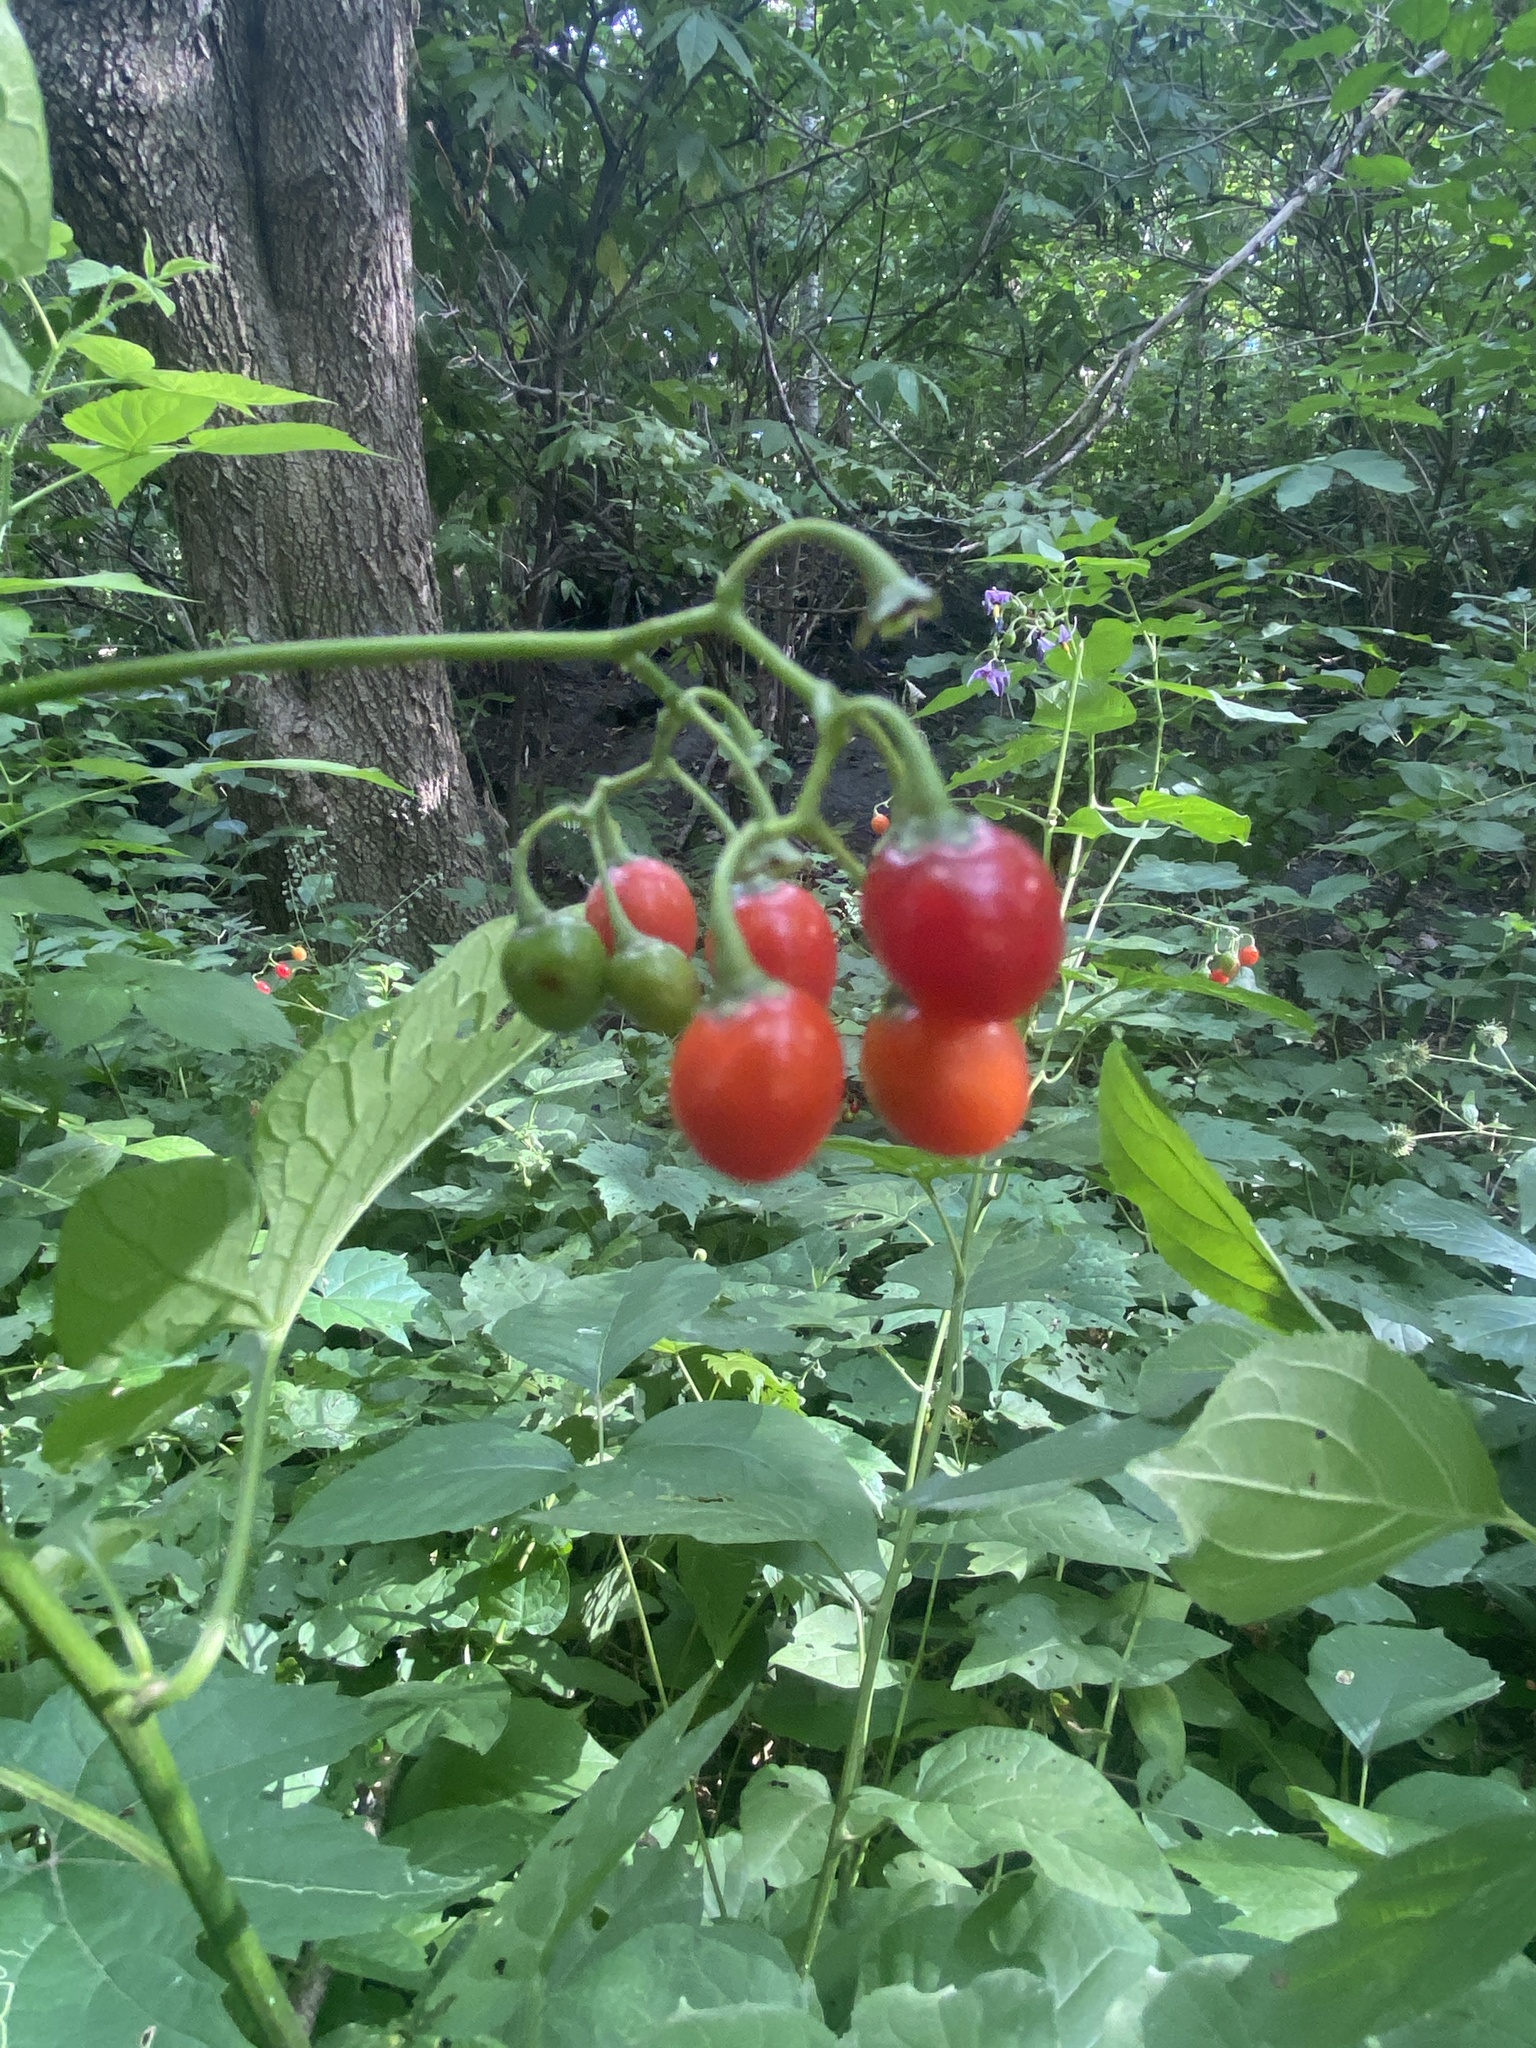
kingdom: Plantae
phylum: Tracheophyta
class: Magnoliopsida
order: Solanales
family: Solanaceae
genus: Solanum
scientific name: Solanum dulcamara
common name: Climbing nightshade
